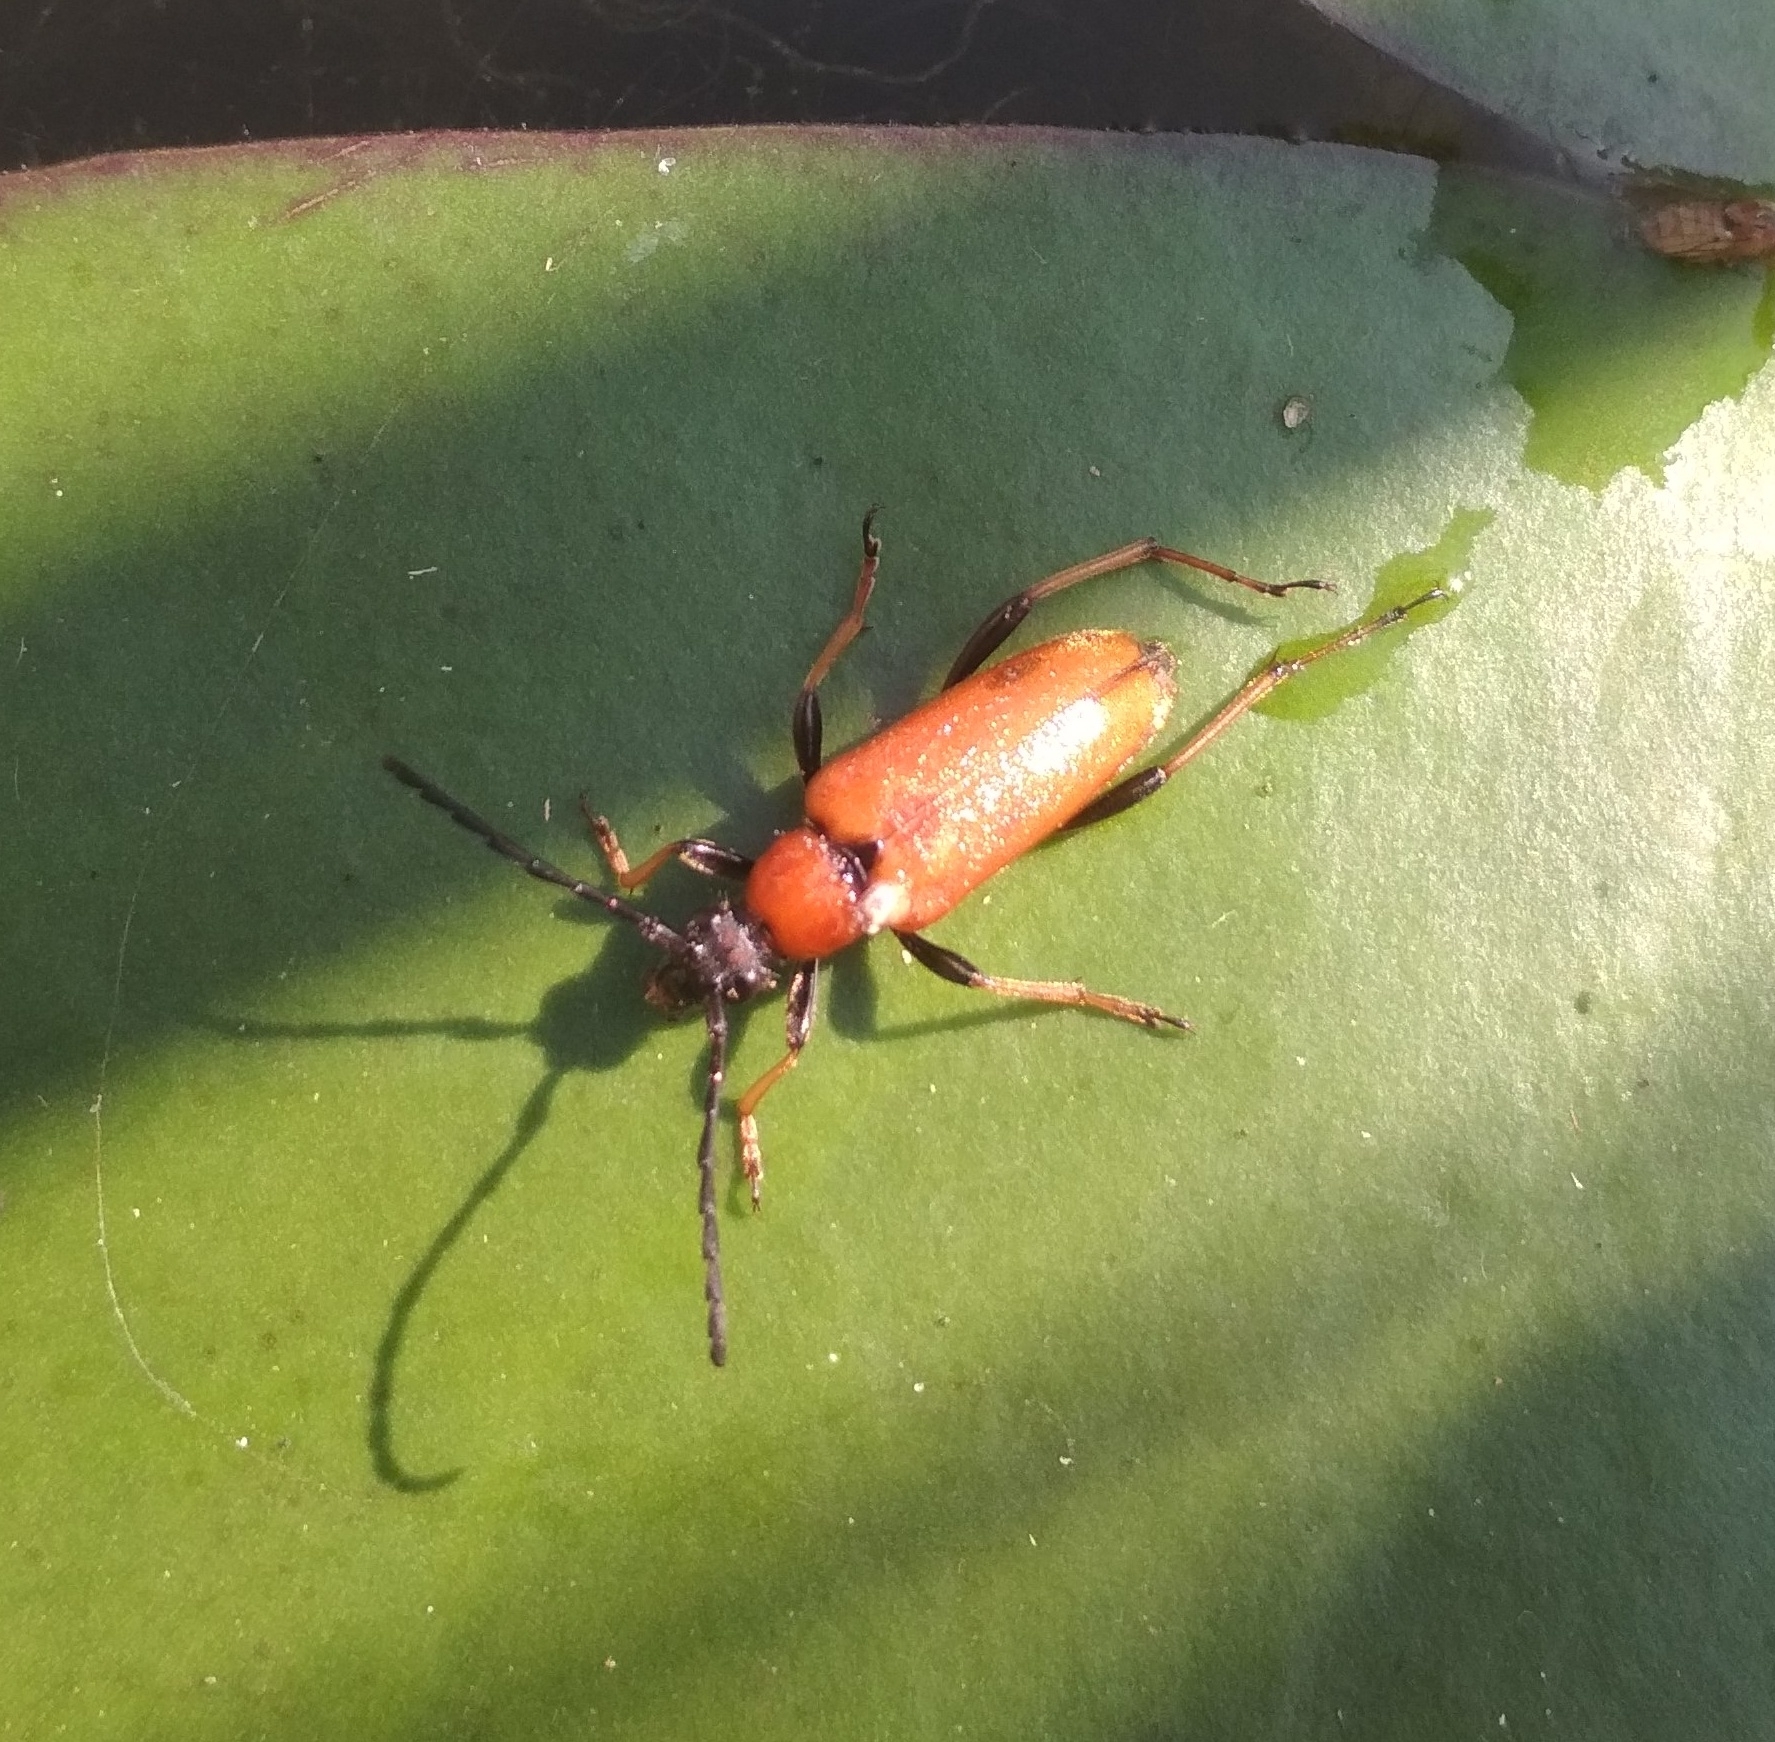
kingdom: Animalia
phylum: Arthropoda
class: Insecta
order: Coleoptera
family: Cerambycidae
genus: Stictoleptura
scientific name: Stictoleptura rubra
